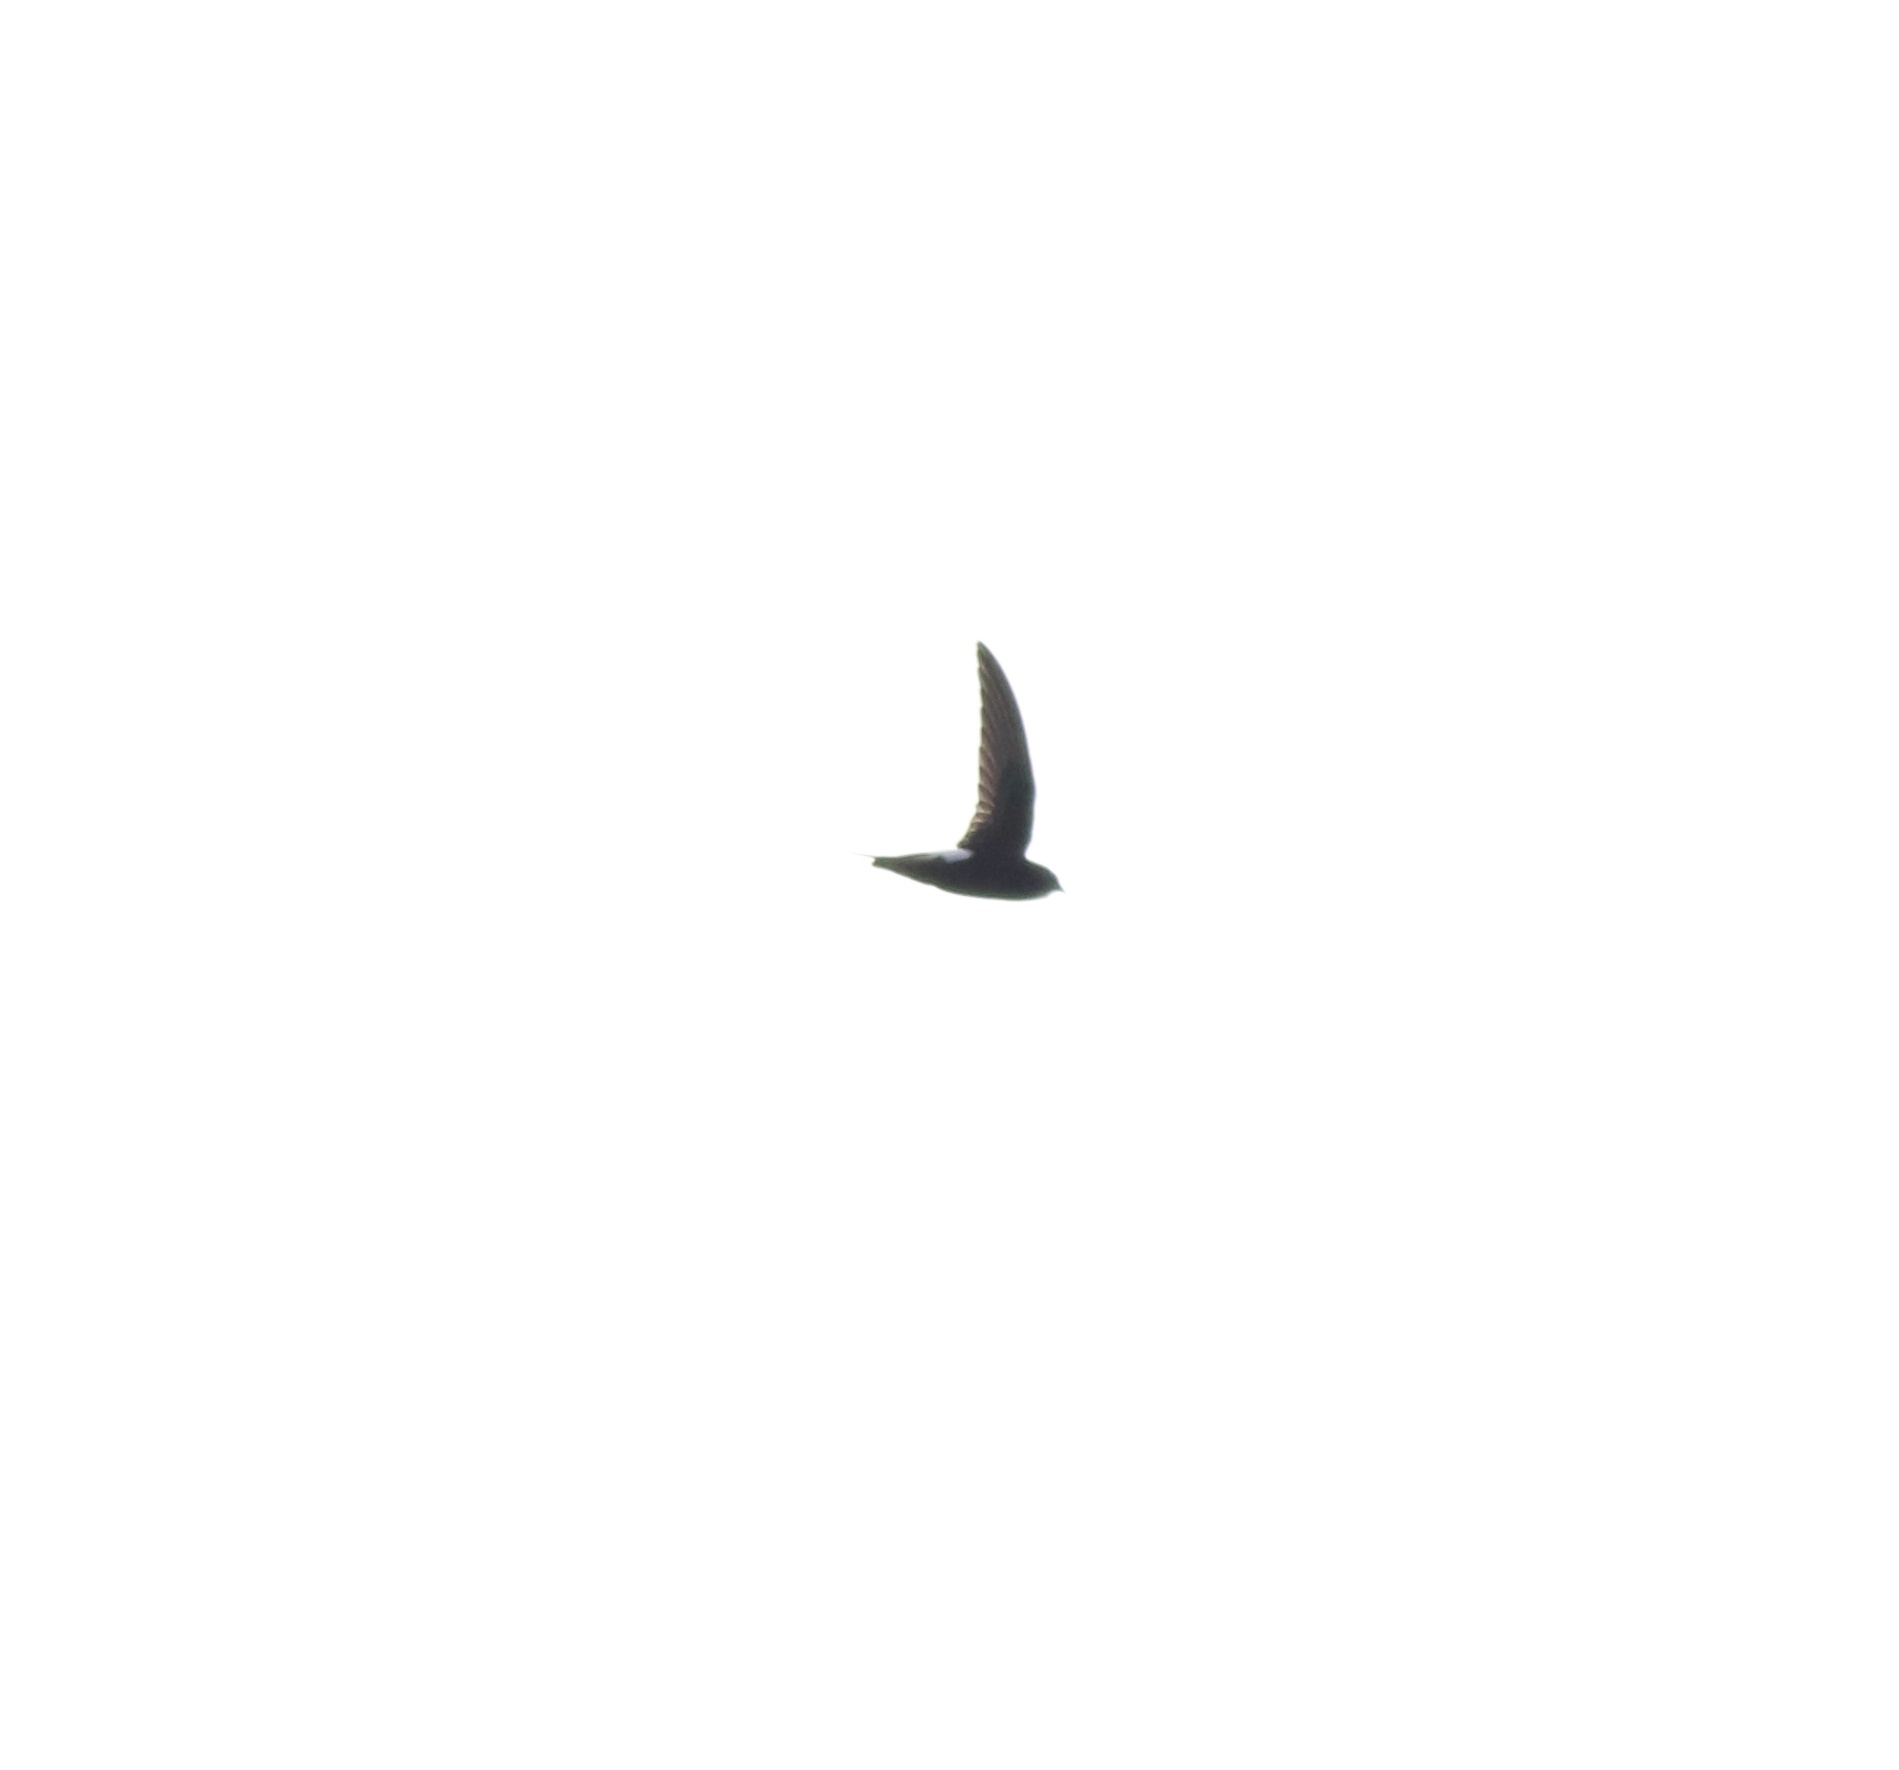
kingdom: Animalia
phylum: Chordata
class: Aves
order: Apodiformes
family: Apodidae
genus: Apus
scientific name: Apus affinis
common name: Little swift
